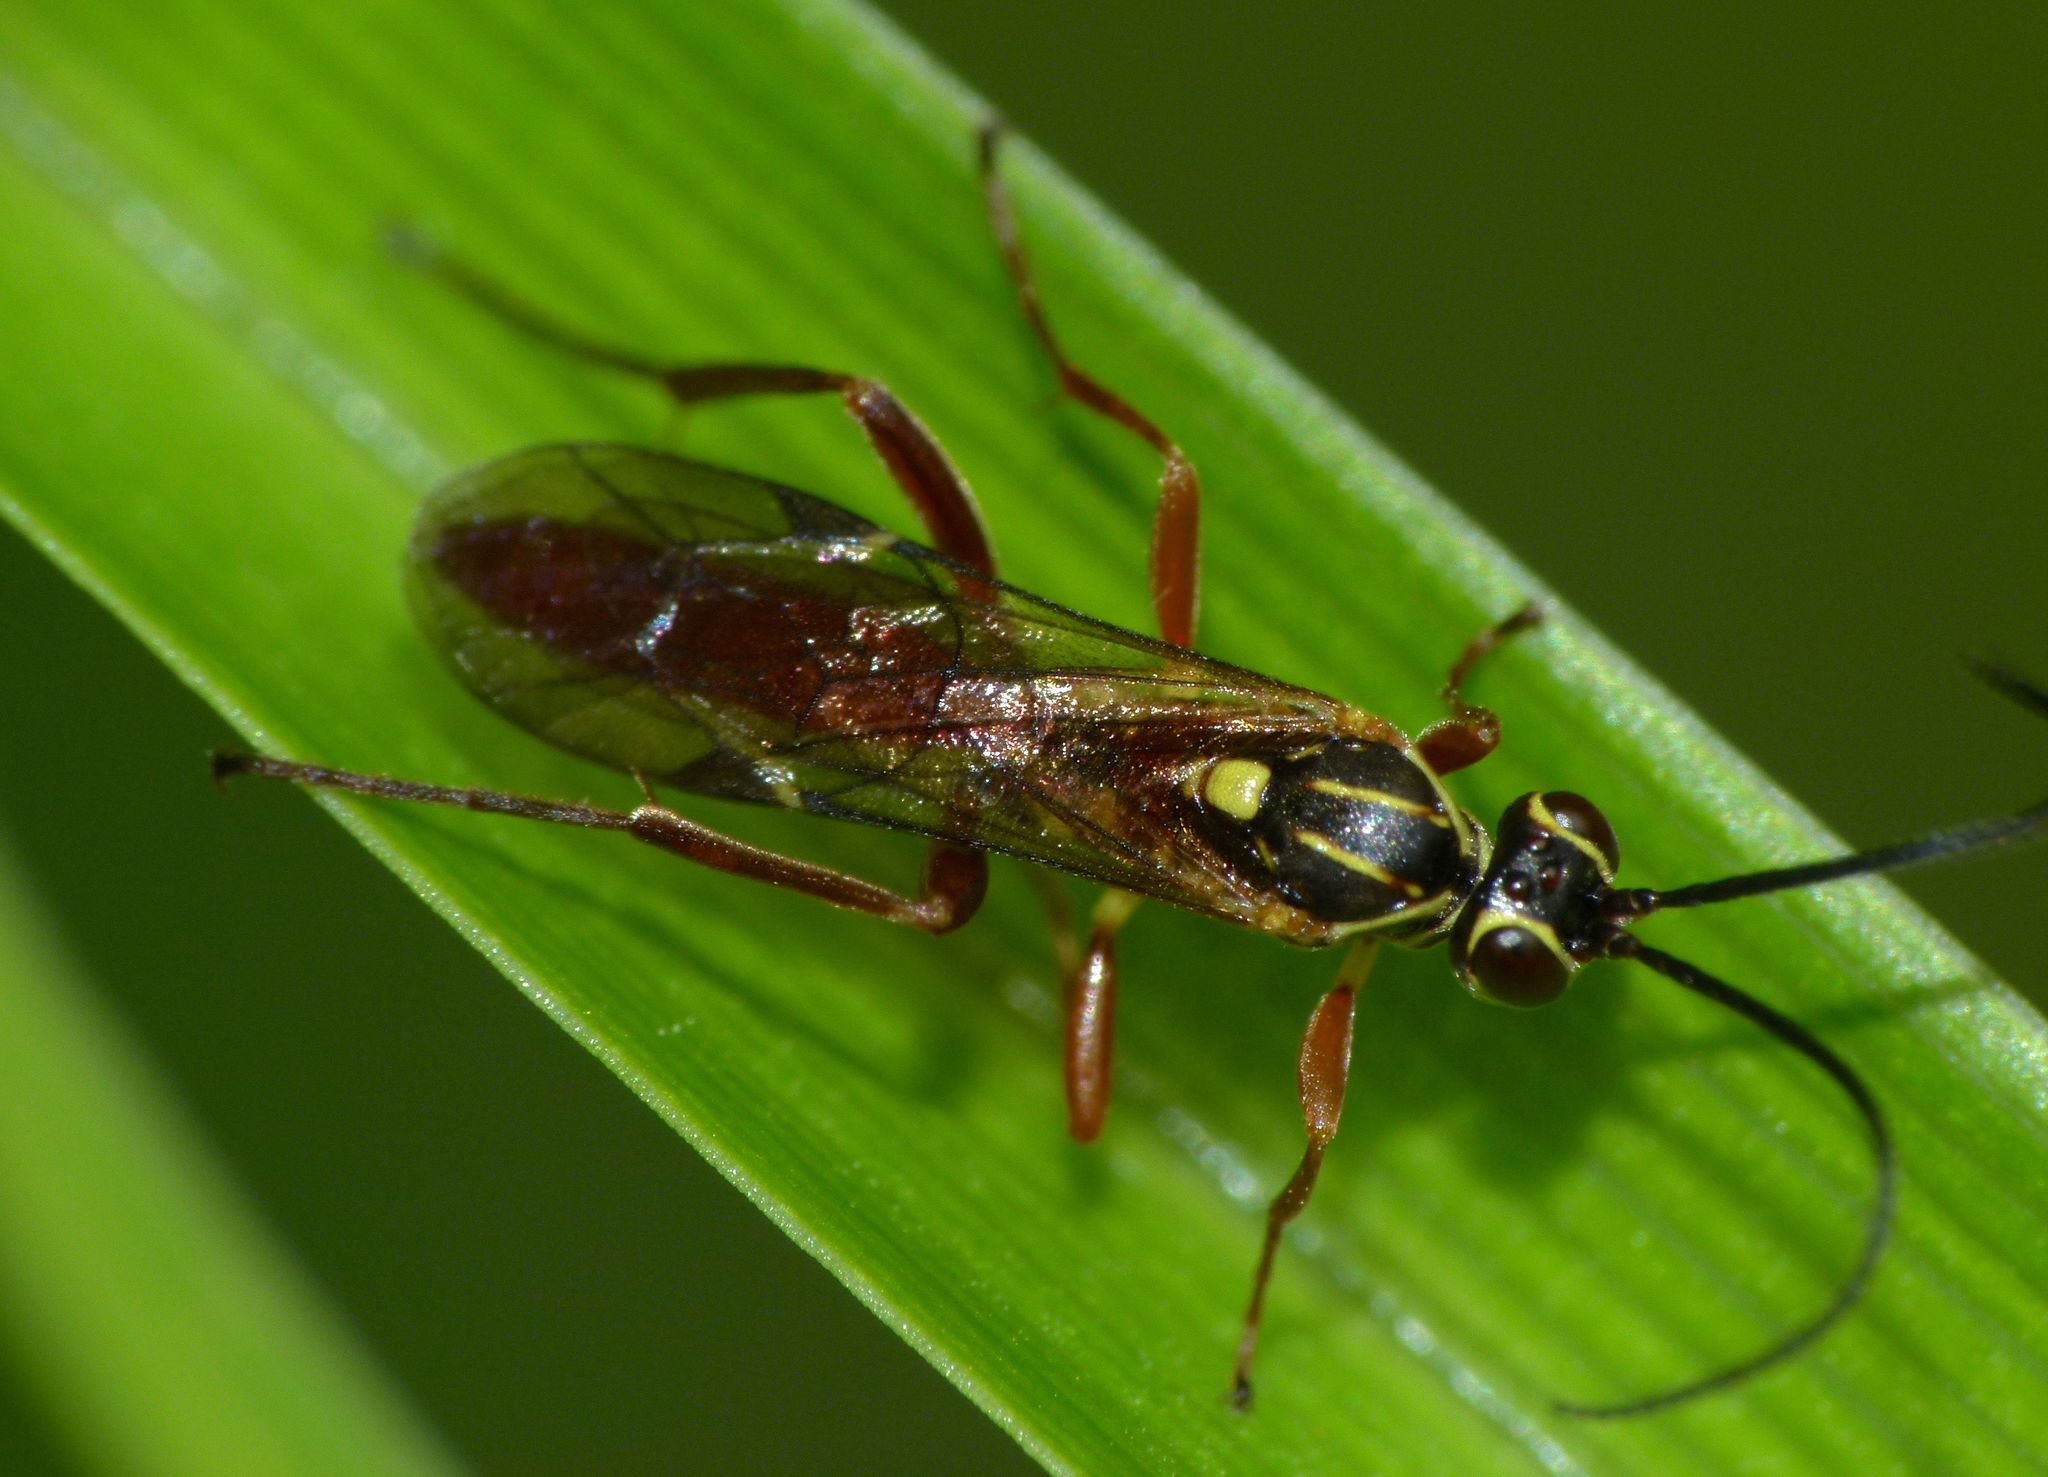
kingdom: Animalia
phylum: Arthropoda
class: Insecta
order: Hymenoptera
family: Ichneumonidae
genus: Aucklandella
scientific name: Aucklandella conspirata
